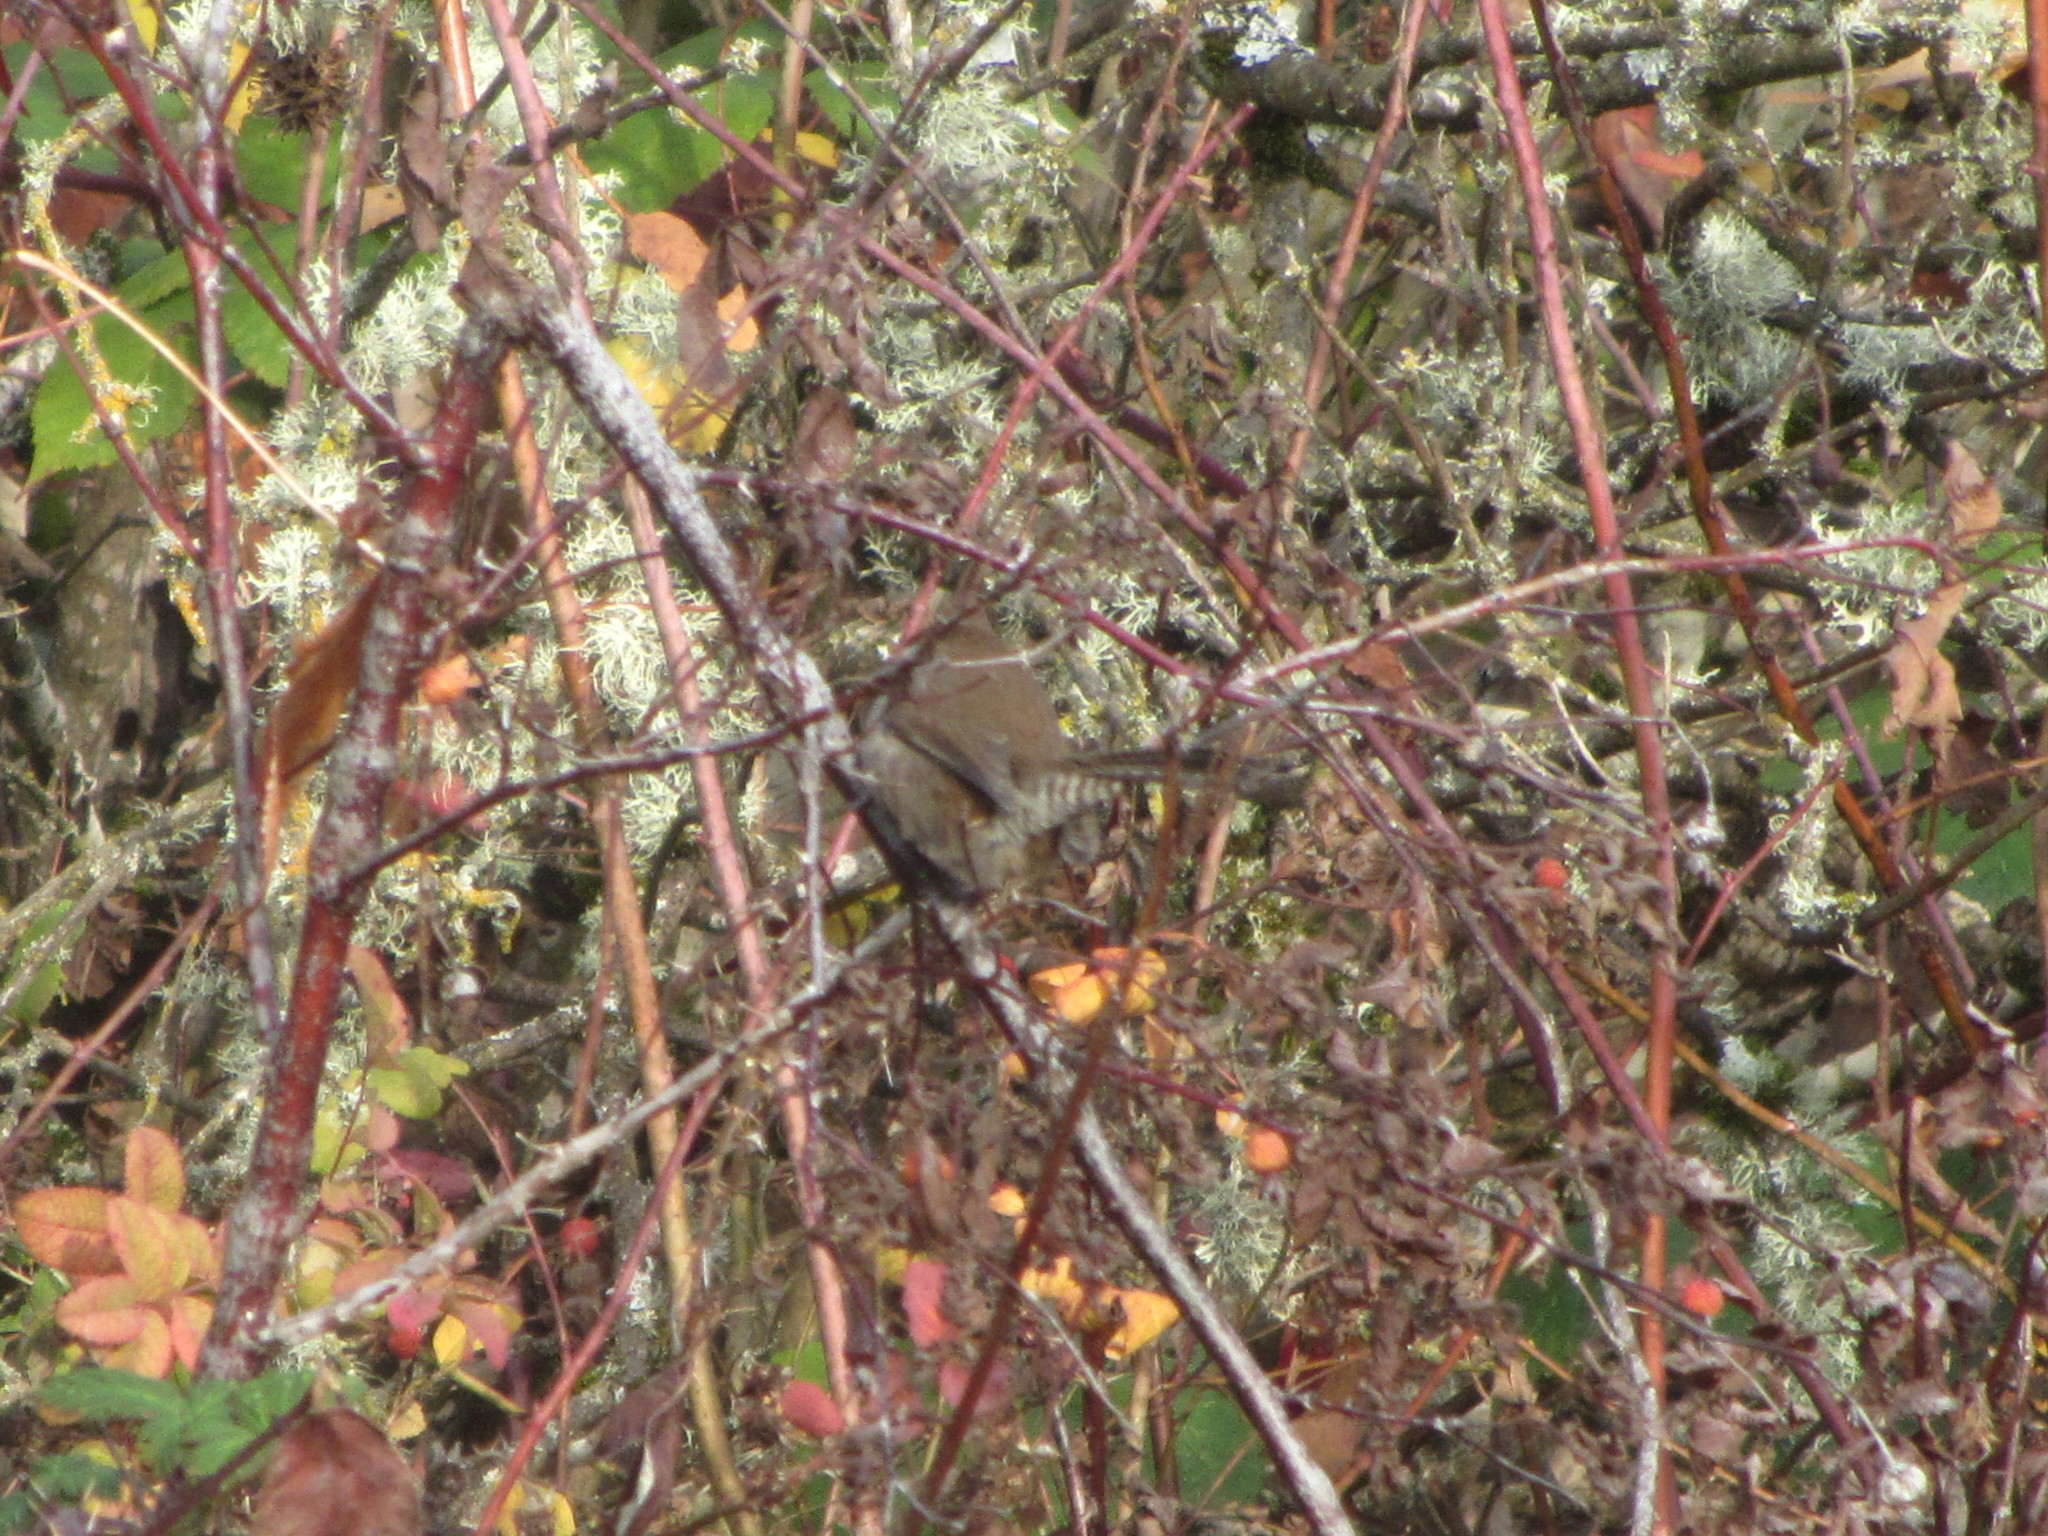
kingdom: Animalia
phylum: Chordata
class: Aves
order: Passeriformes
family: Troglodytidae
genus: Thryomanes
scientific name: Thryomanes bewickii
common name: Bewick's wren
